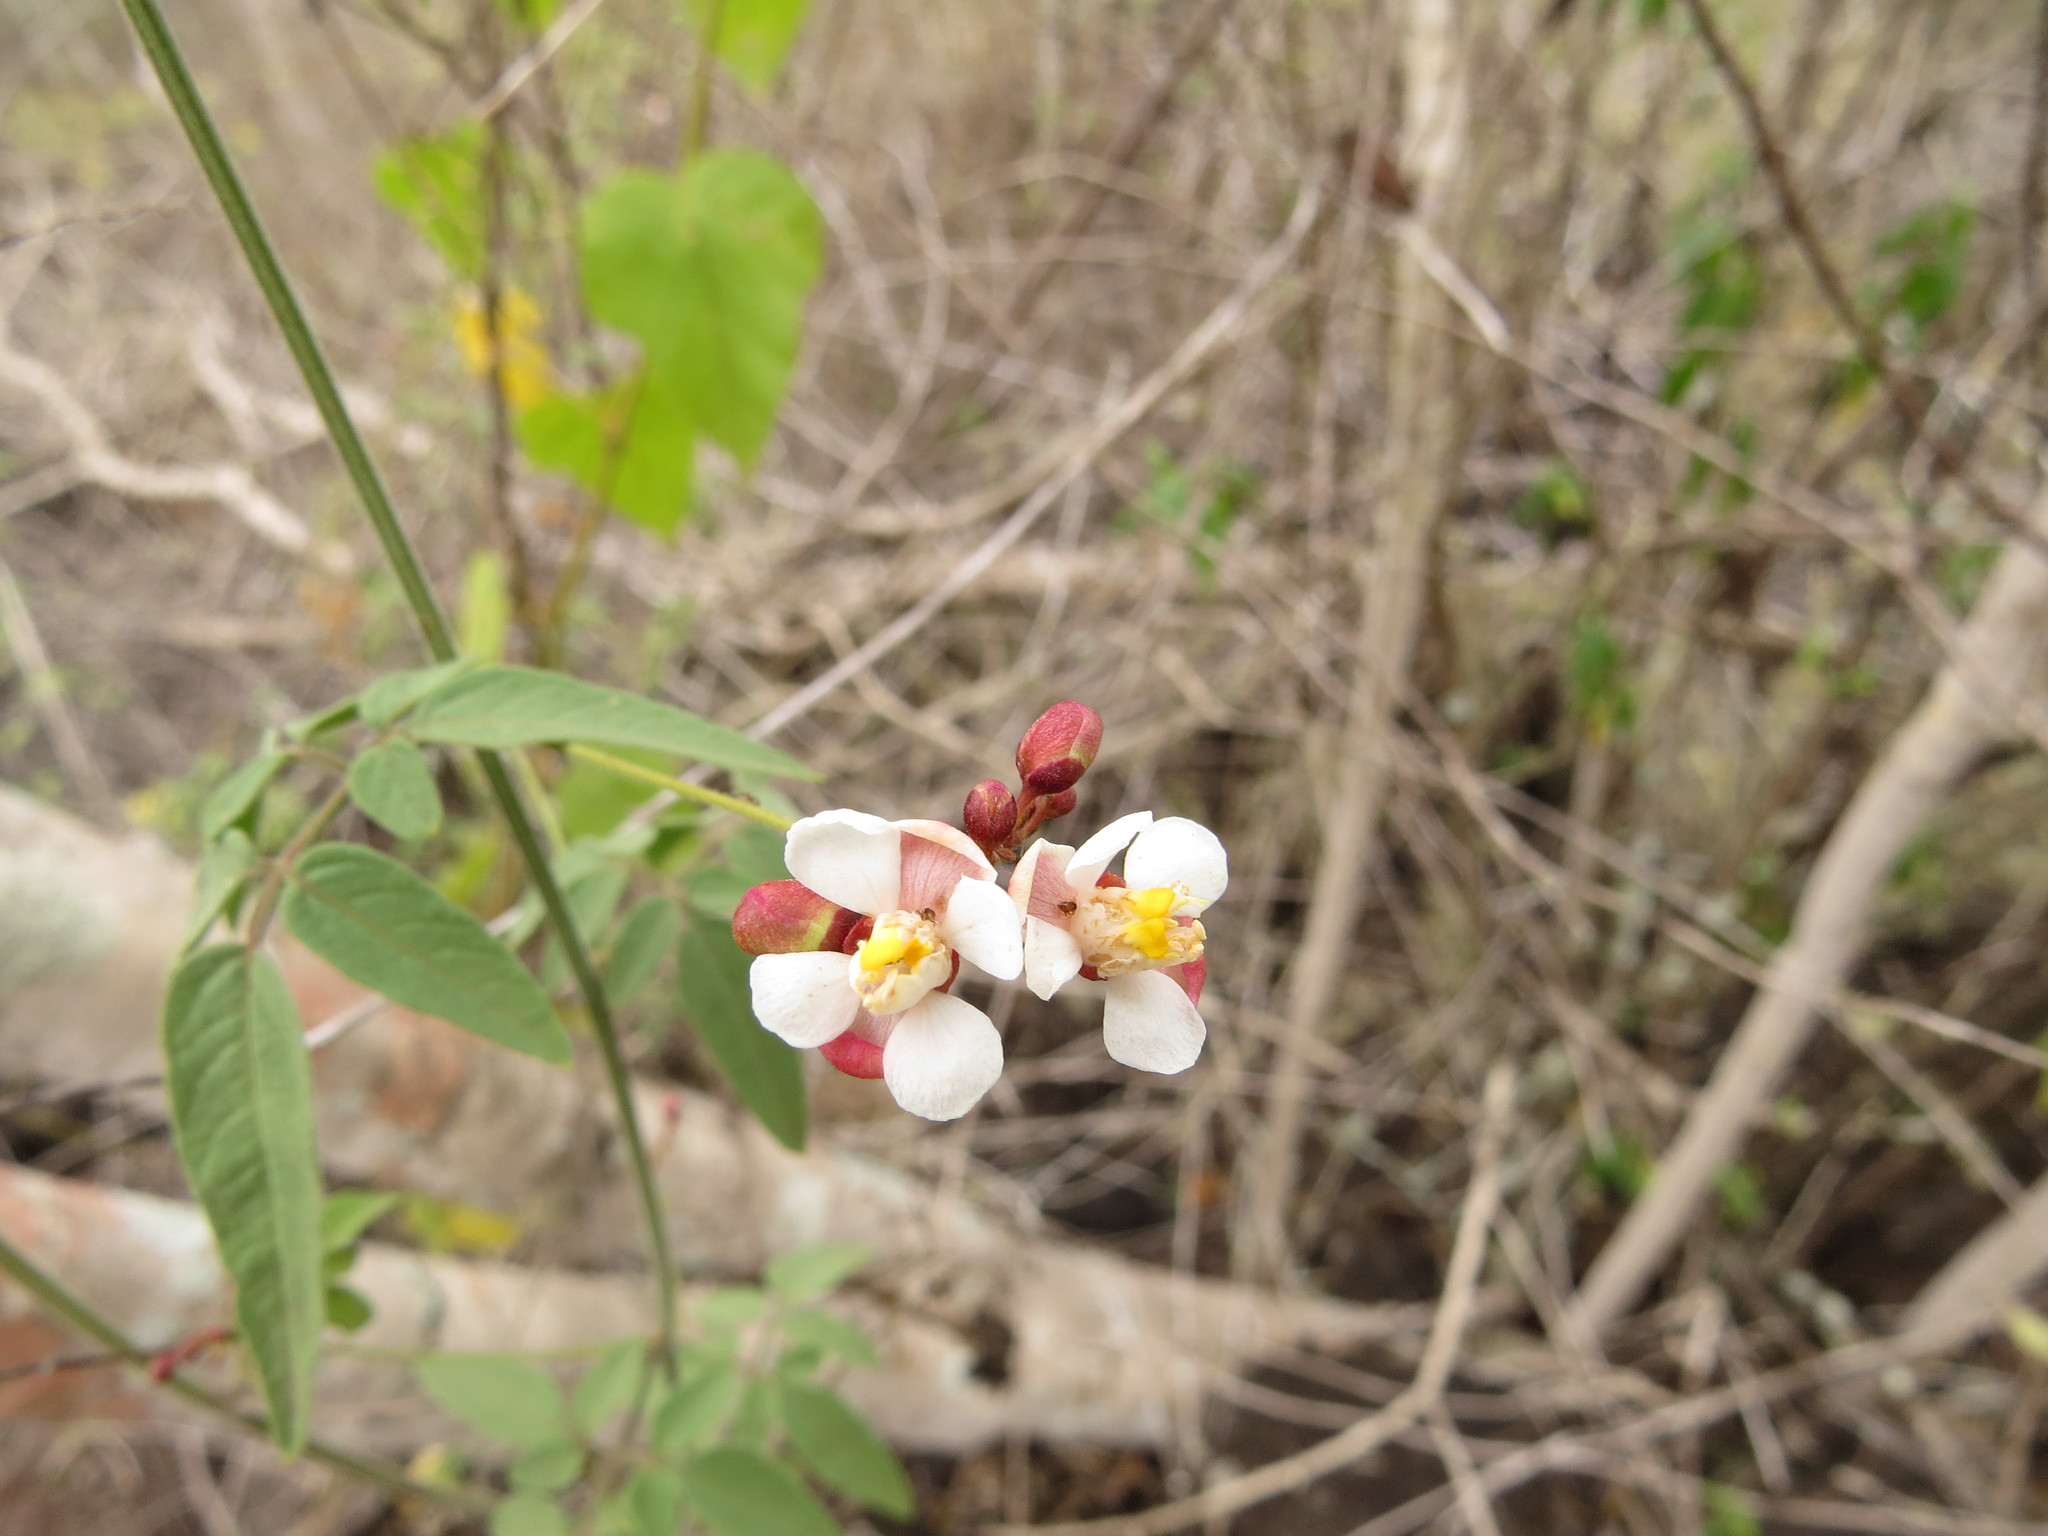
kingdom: Plantae
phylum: Tracheophyta
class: Magnoliopsida
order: Sapindales
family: Sapindaceae
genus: Cardiospermum
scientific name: Cardiospermum corindum
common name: Faux persil
